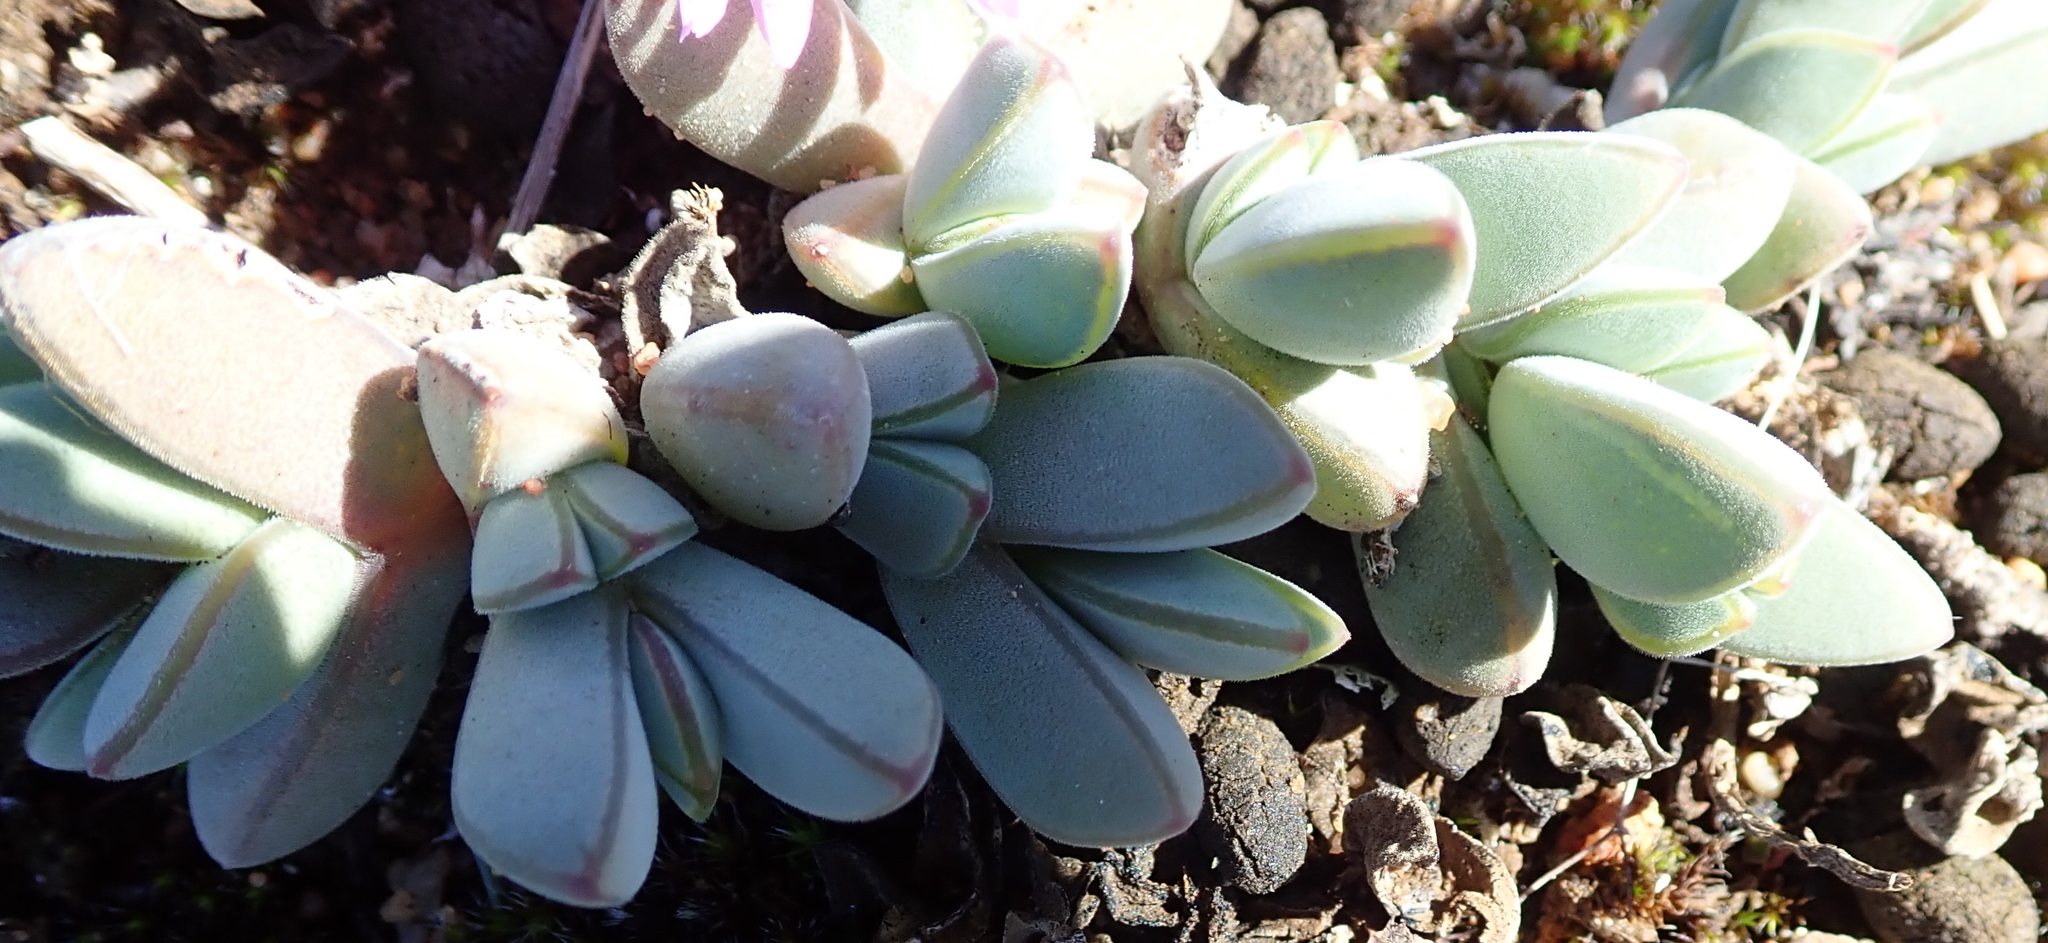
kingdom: Plantae
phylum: Tracheophyta
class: Magnoliopsida
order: Caryophyllales
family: Aizoaceae
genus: Braunsia
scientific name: Braunsia maximiliani
